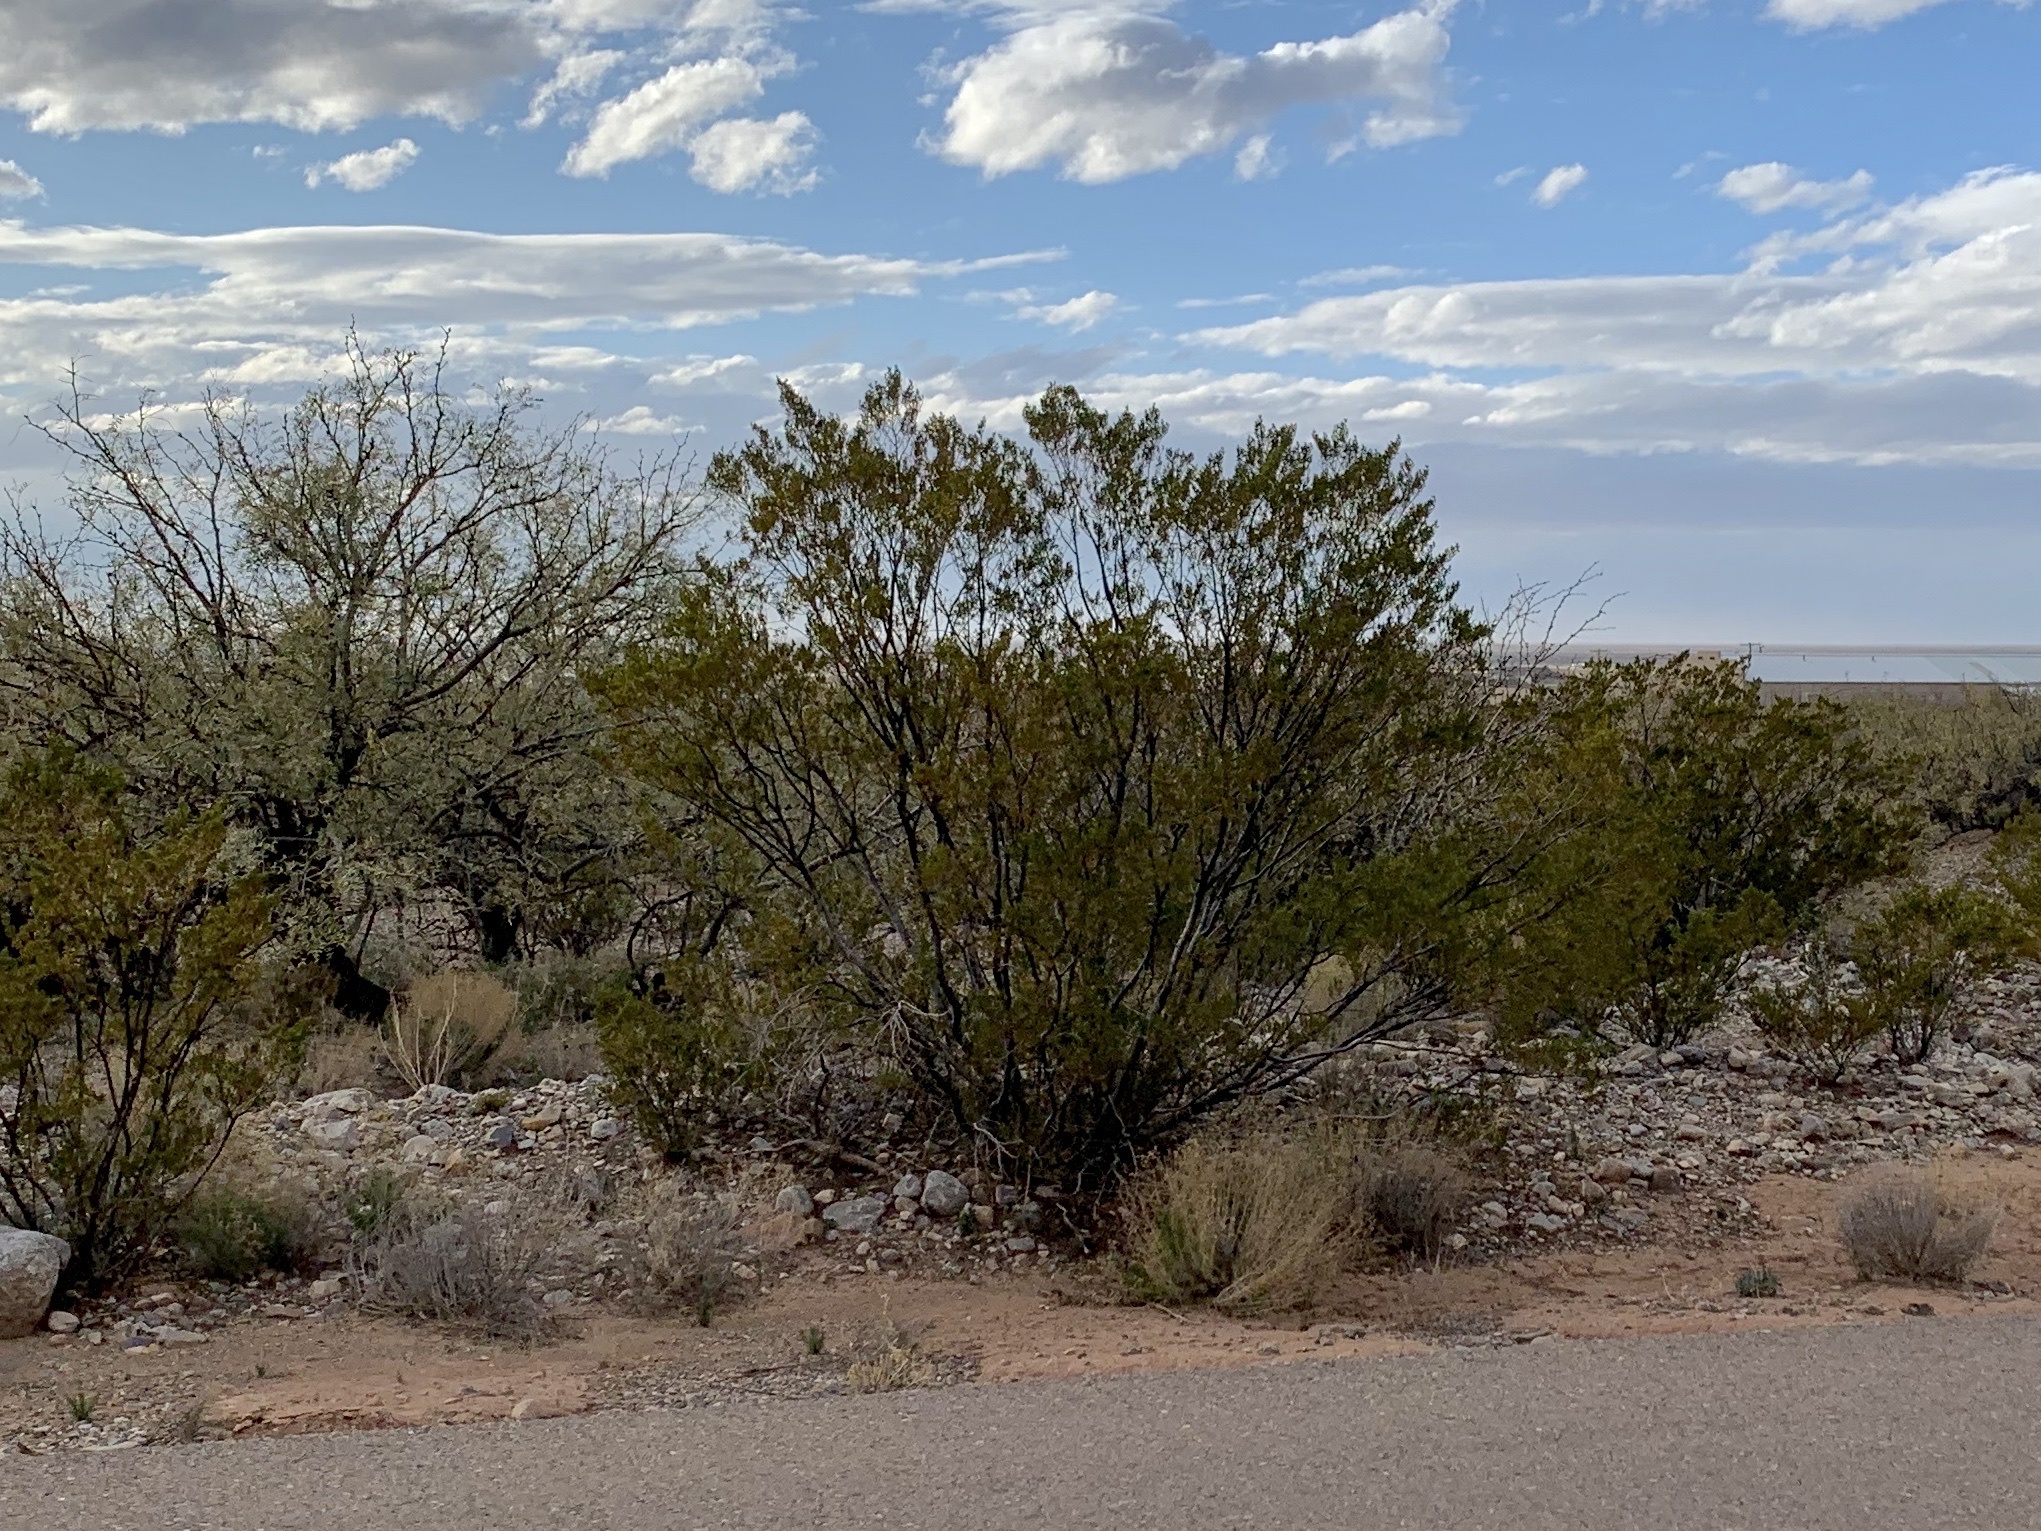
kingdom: Plantae
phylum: Tracheophyta
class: Magnoliopsida
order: Zygophyllales
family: Zygophyllaceae
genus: Larrea
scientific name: Larrea tridentata
